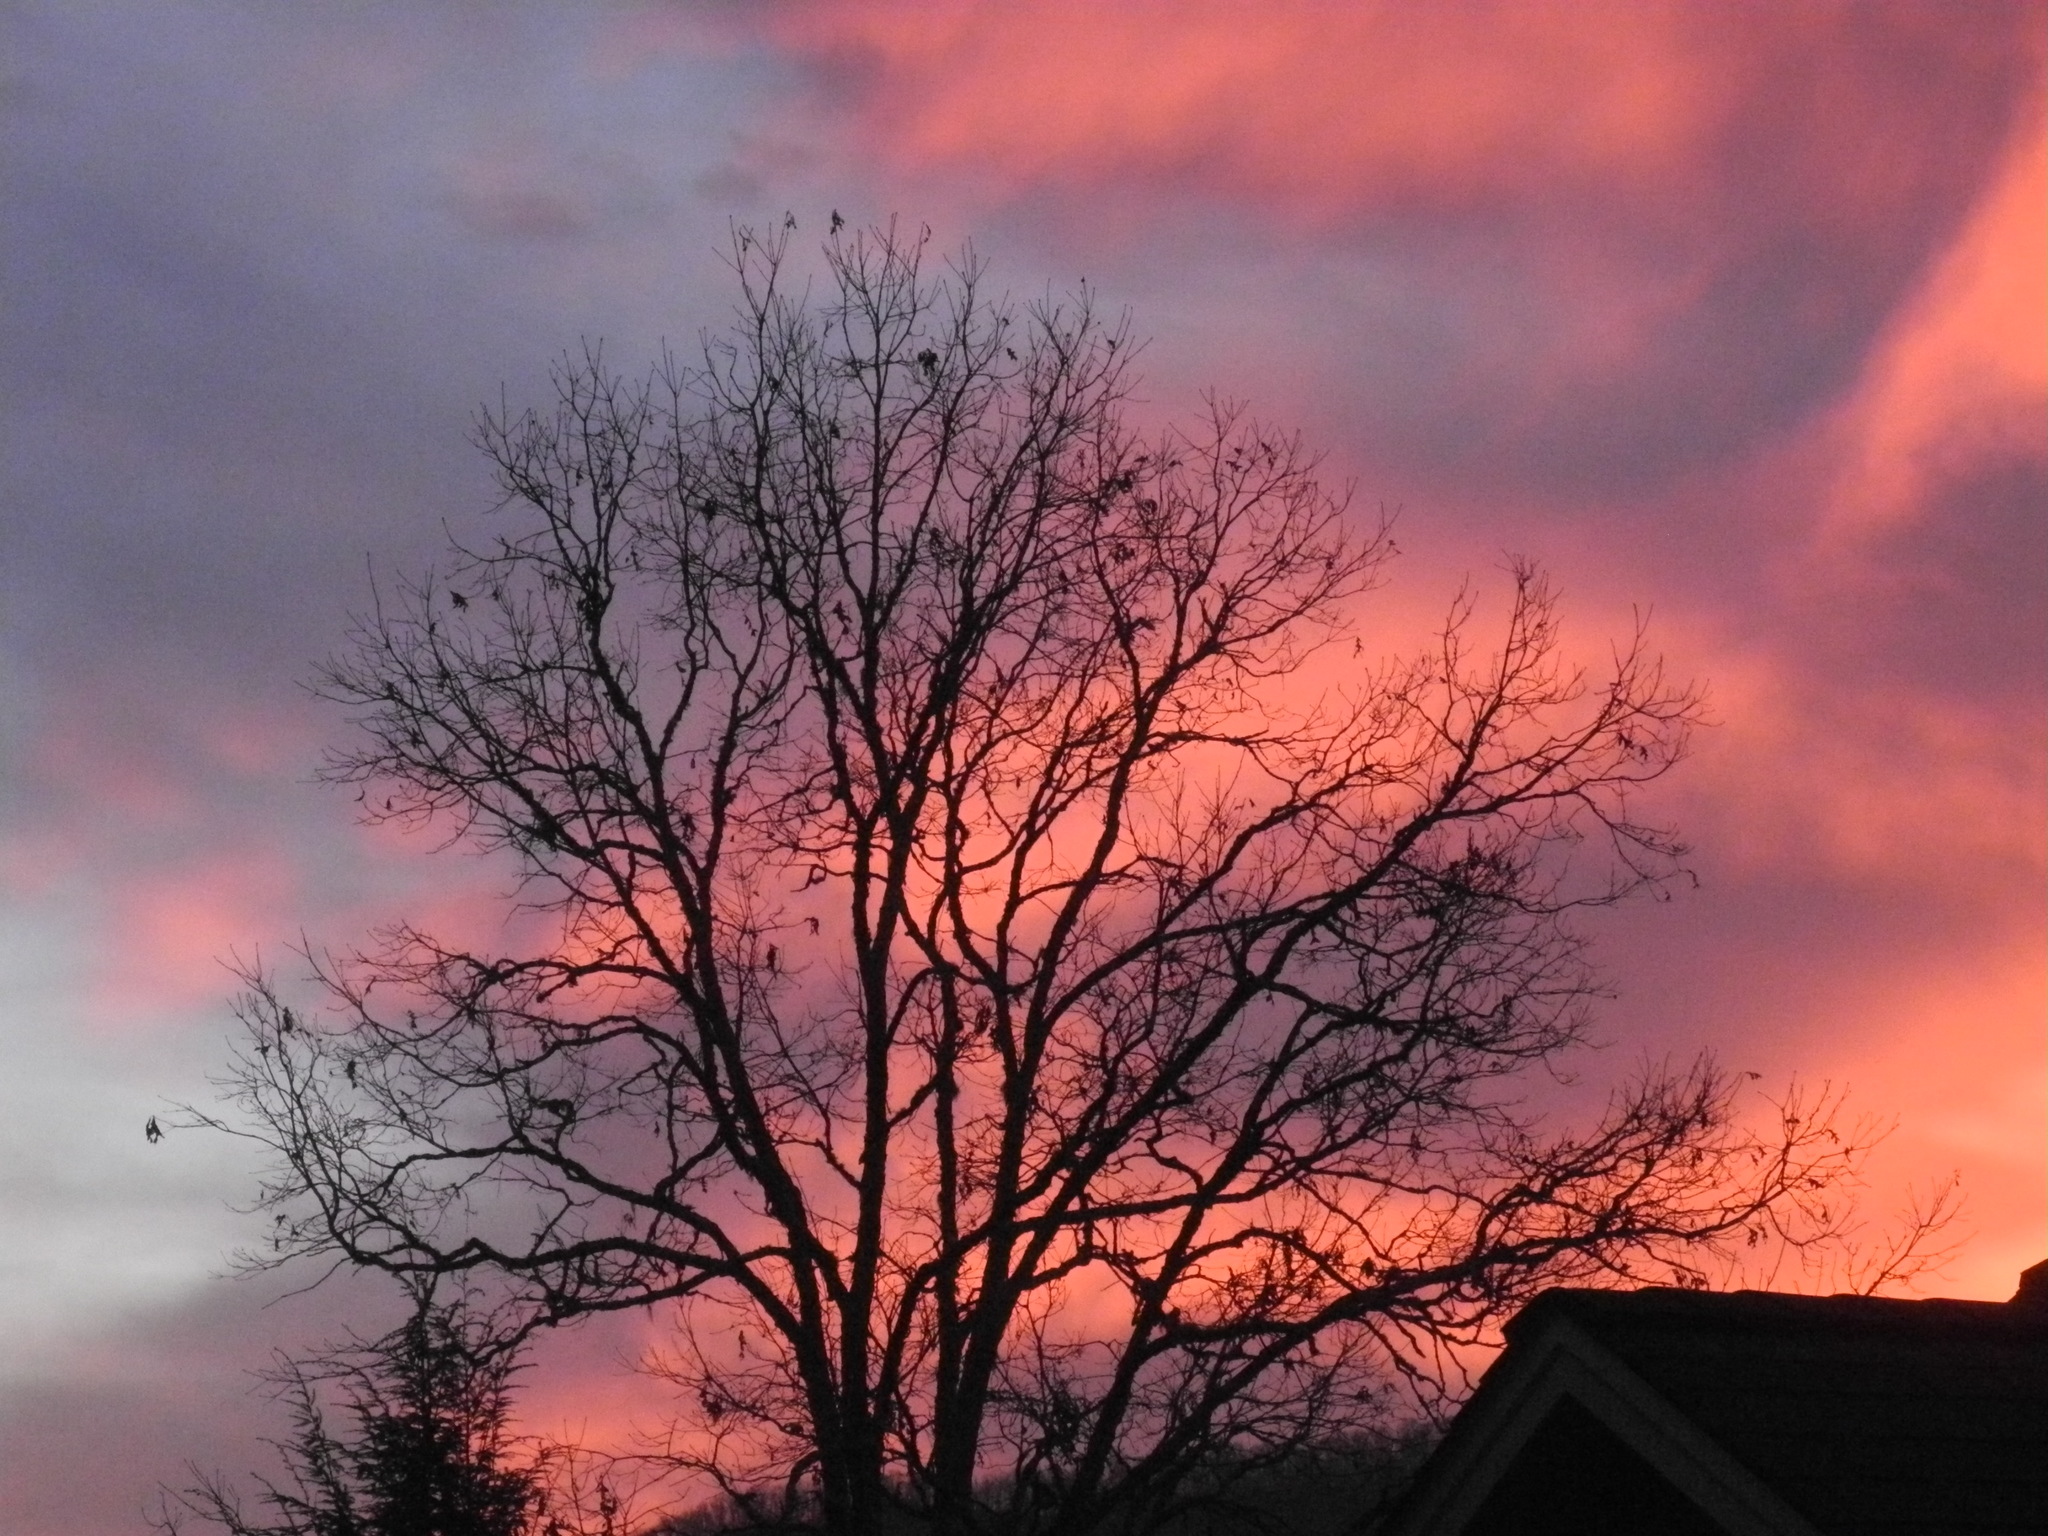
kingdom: Plantae
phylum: Tracheophyta
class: Magnoliopsida
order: Fagales
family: Fagaceae
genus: Quercus
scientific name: Quercus alba
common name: White oak
